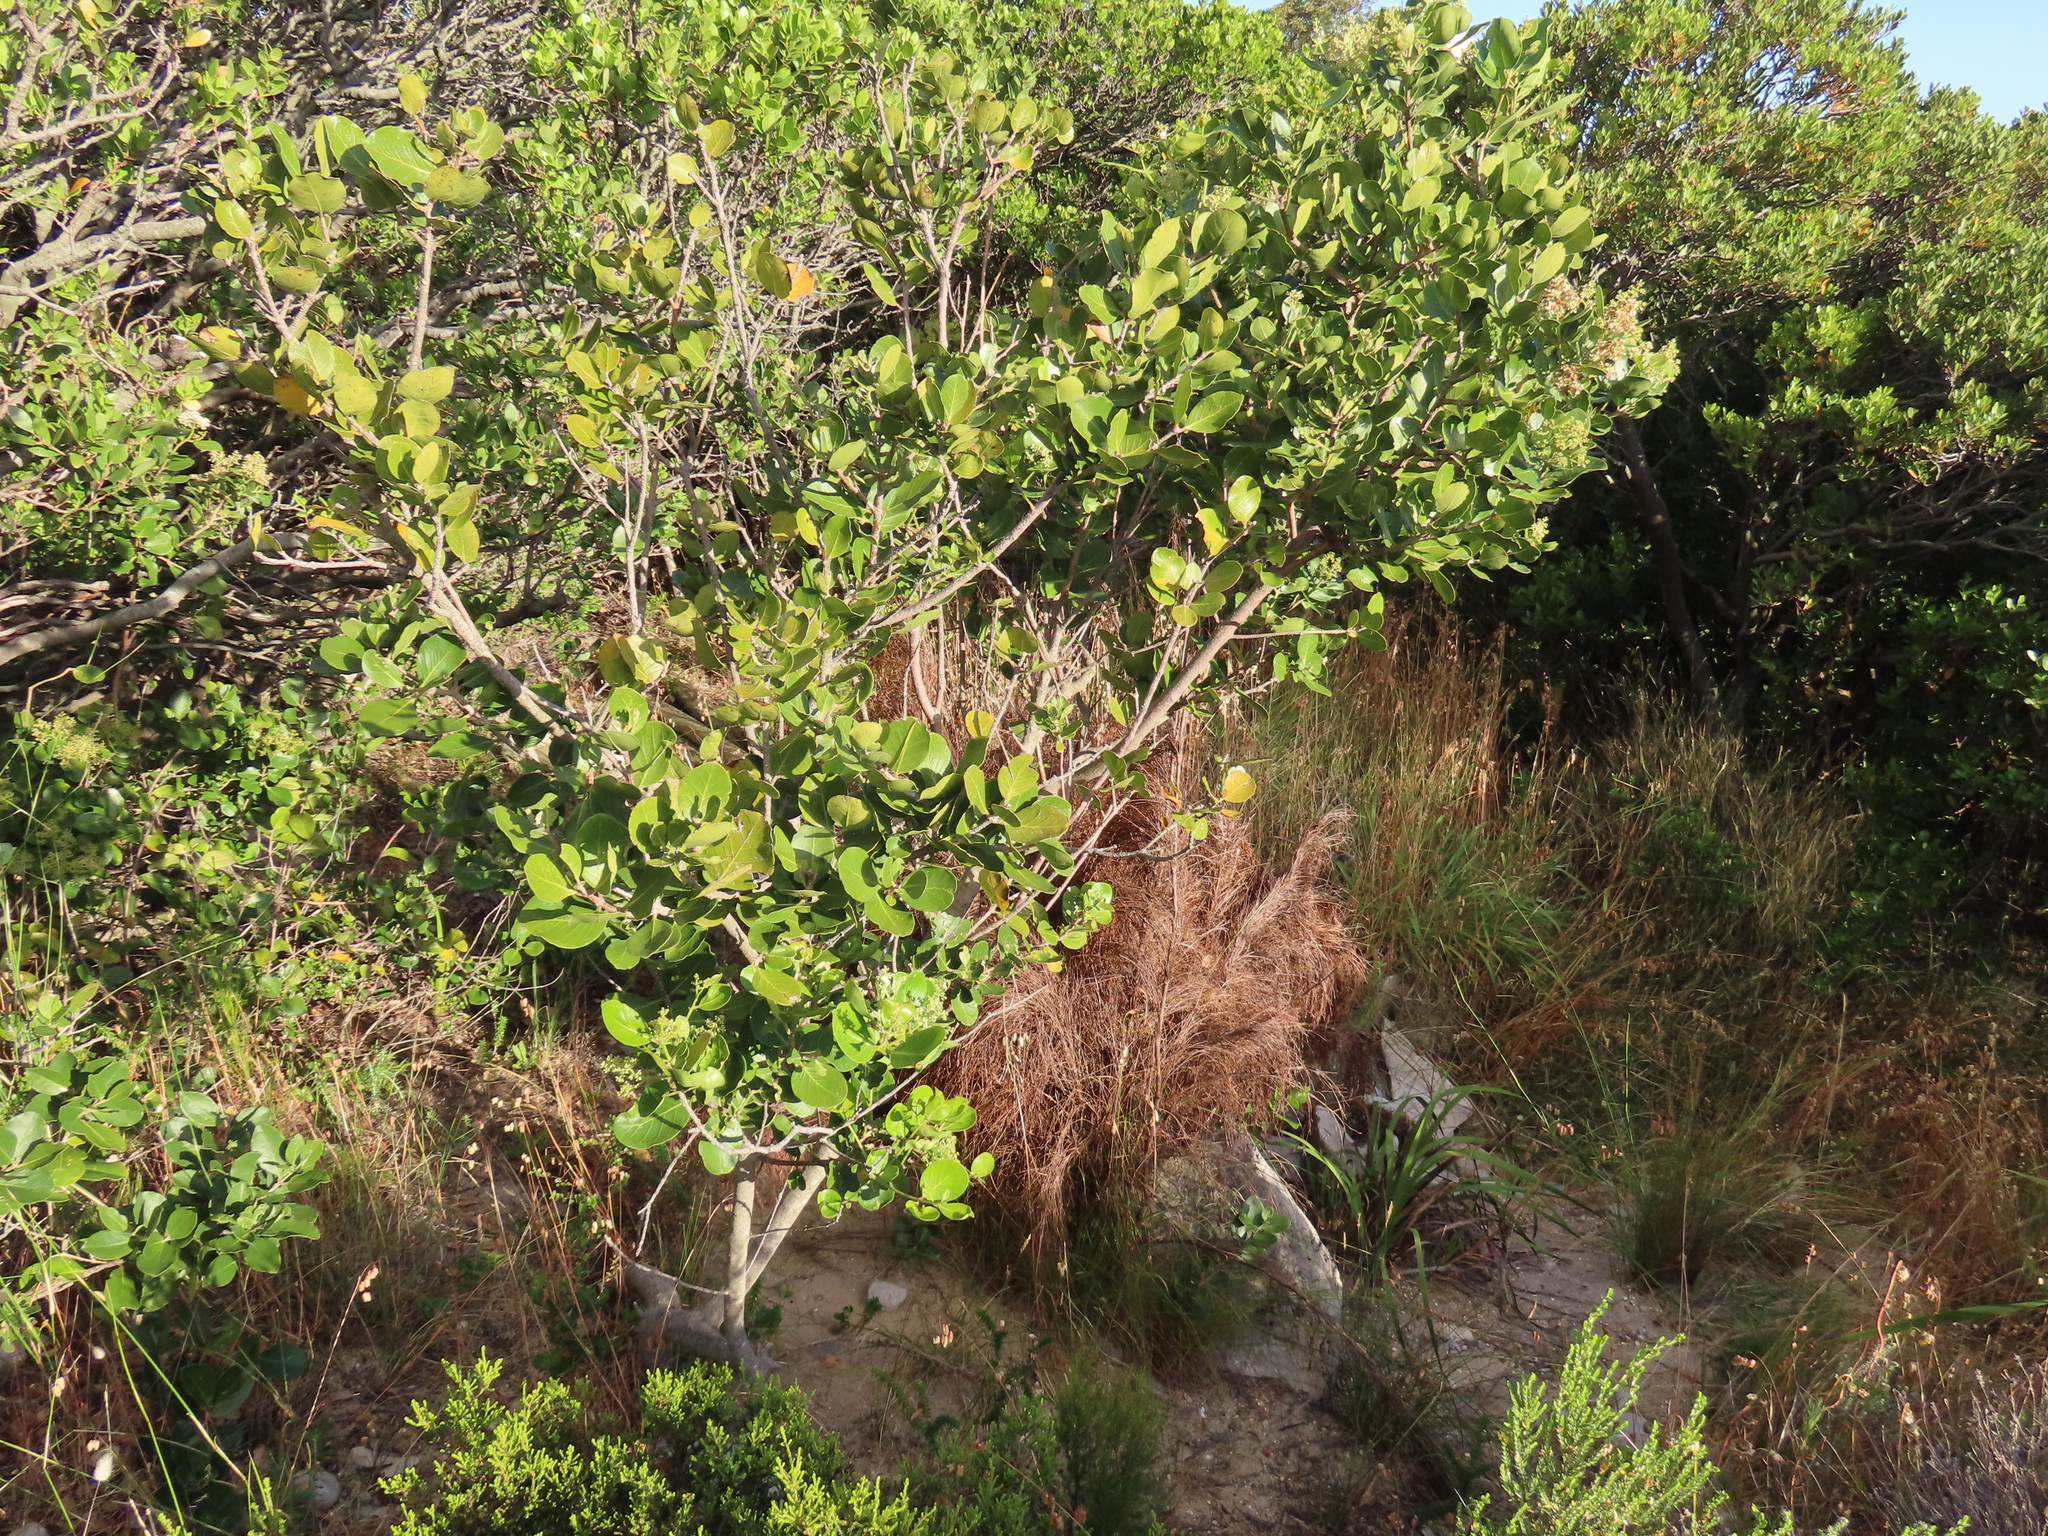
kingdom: Plantae
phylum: Tracheophyta
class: Magnoliopsida
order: Lamiales
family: Oleaceae
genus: Olea
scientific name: Olea capensis
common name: Black ironwood
